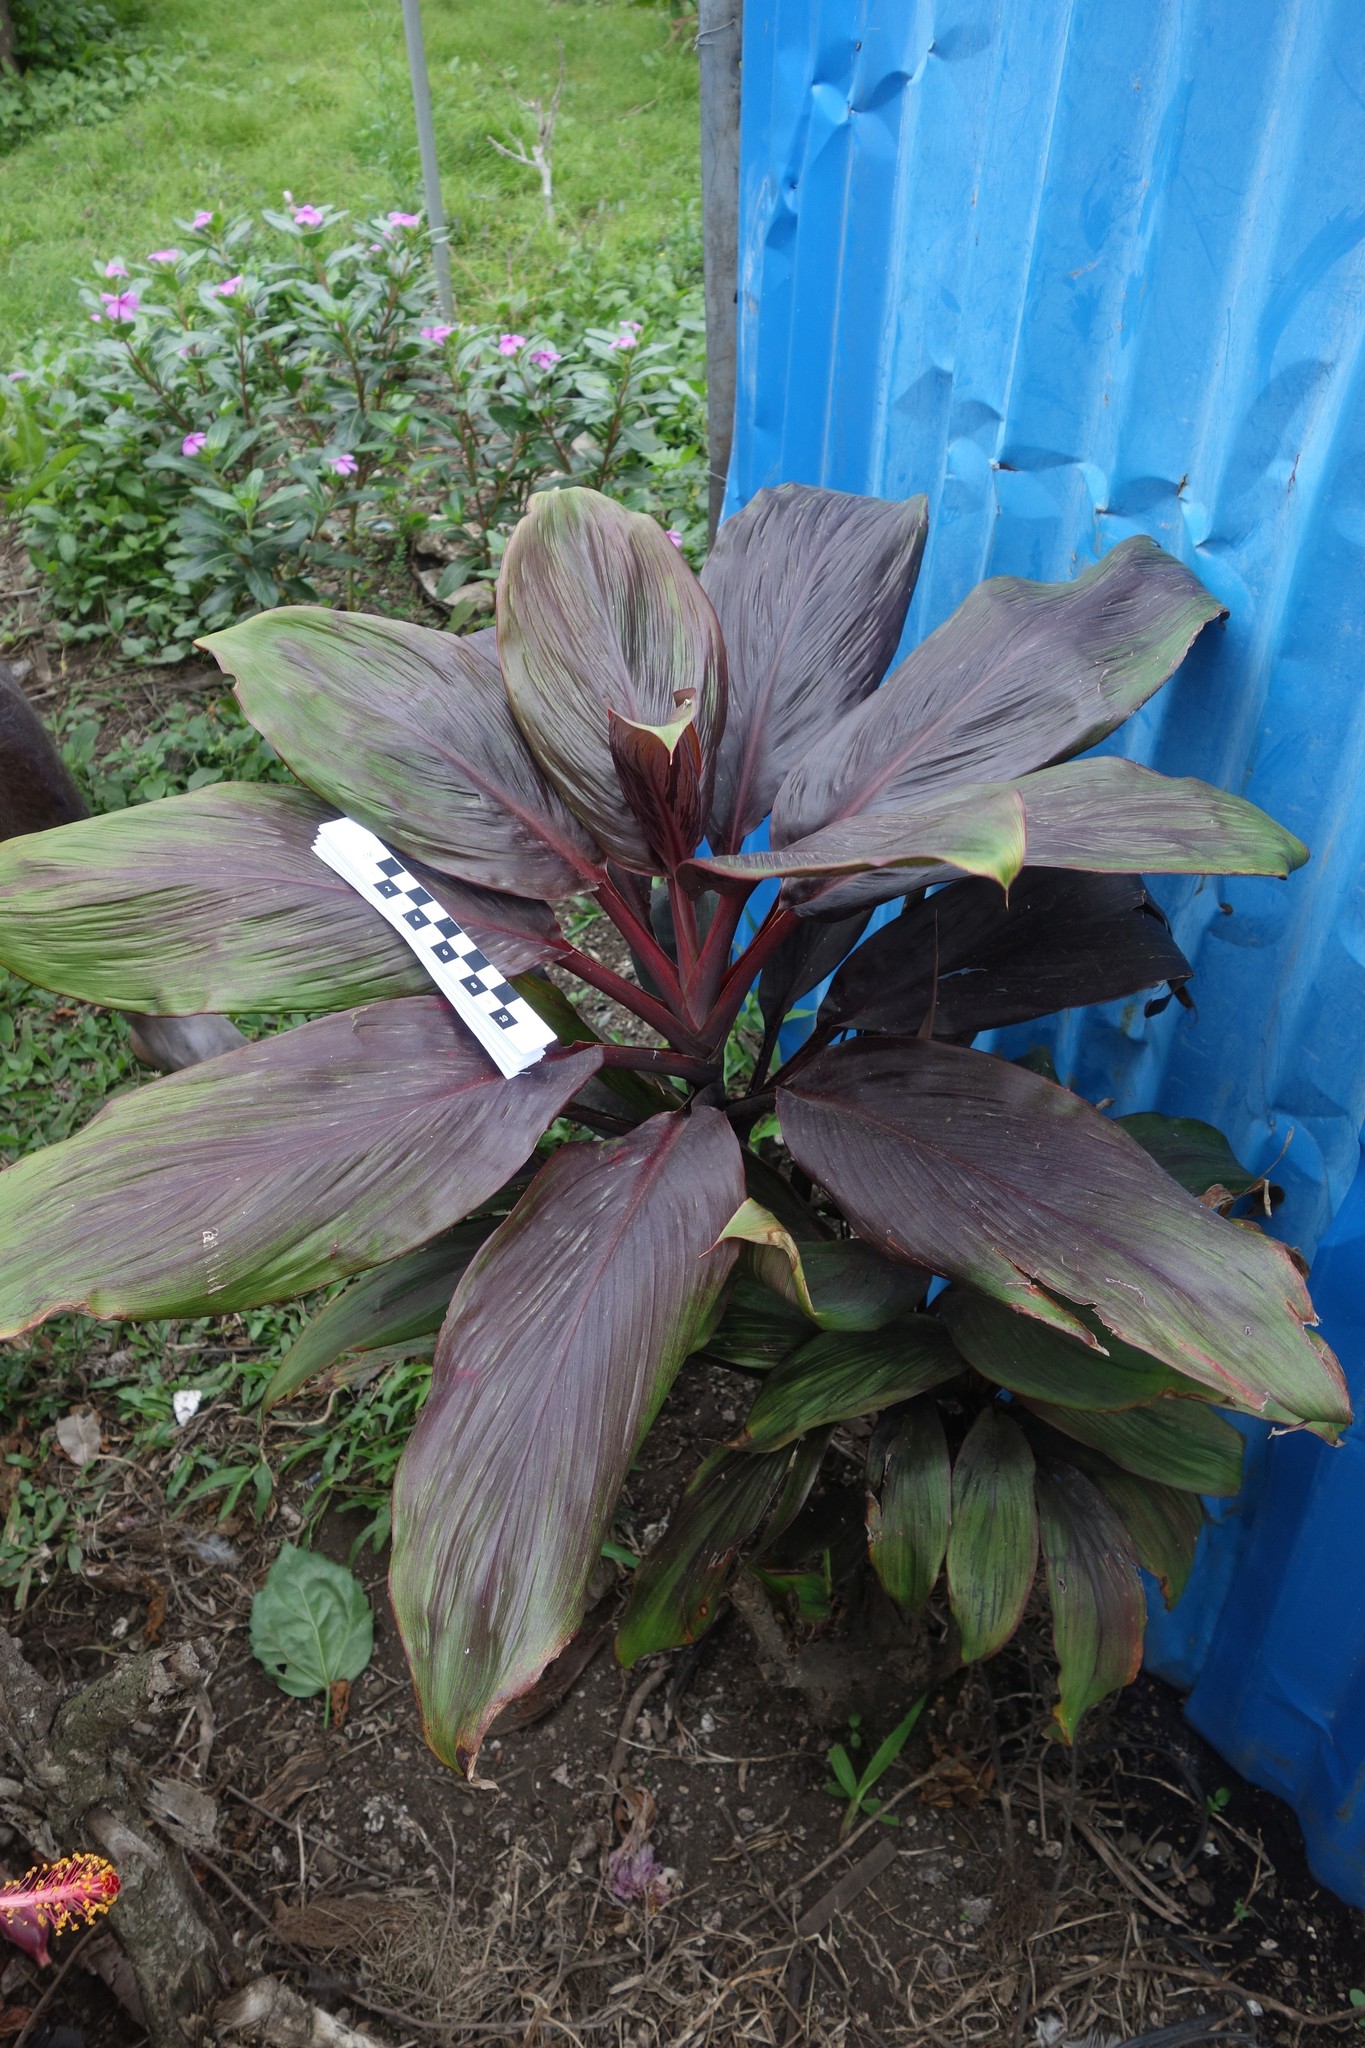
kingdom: Plantae
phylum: Tracheophyta
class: Liliopsida
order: Asparagales
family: Asparagaceae
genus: Cordyline
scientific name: Cordyline fruticosa
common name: Good-luck-plant
